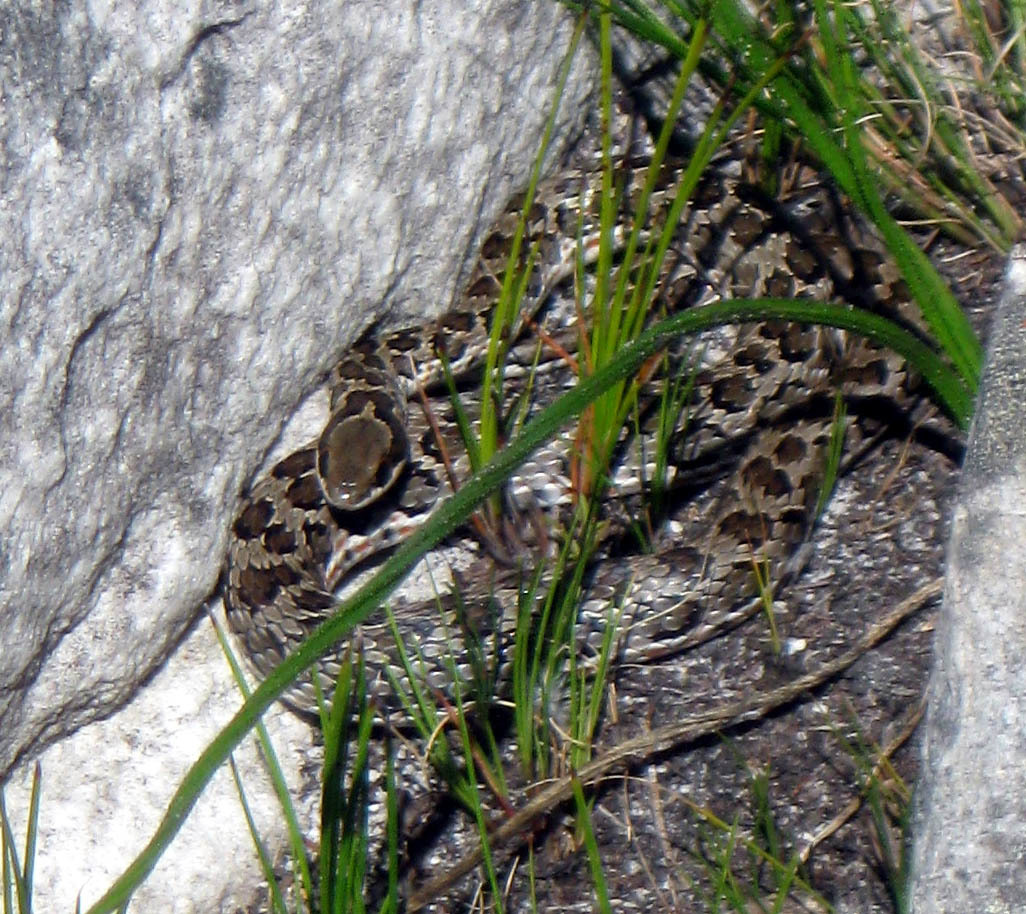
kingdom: Animalia
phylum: Chordata
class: Squamata
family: Psammophiidae
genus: Psammophylax
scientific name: Psammophylax rhombeatus
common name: Rhombic skaapsteker
